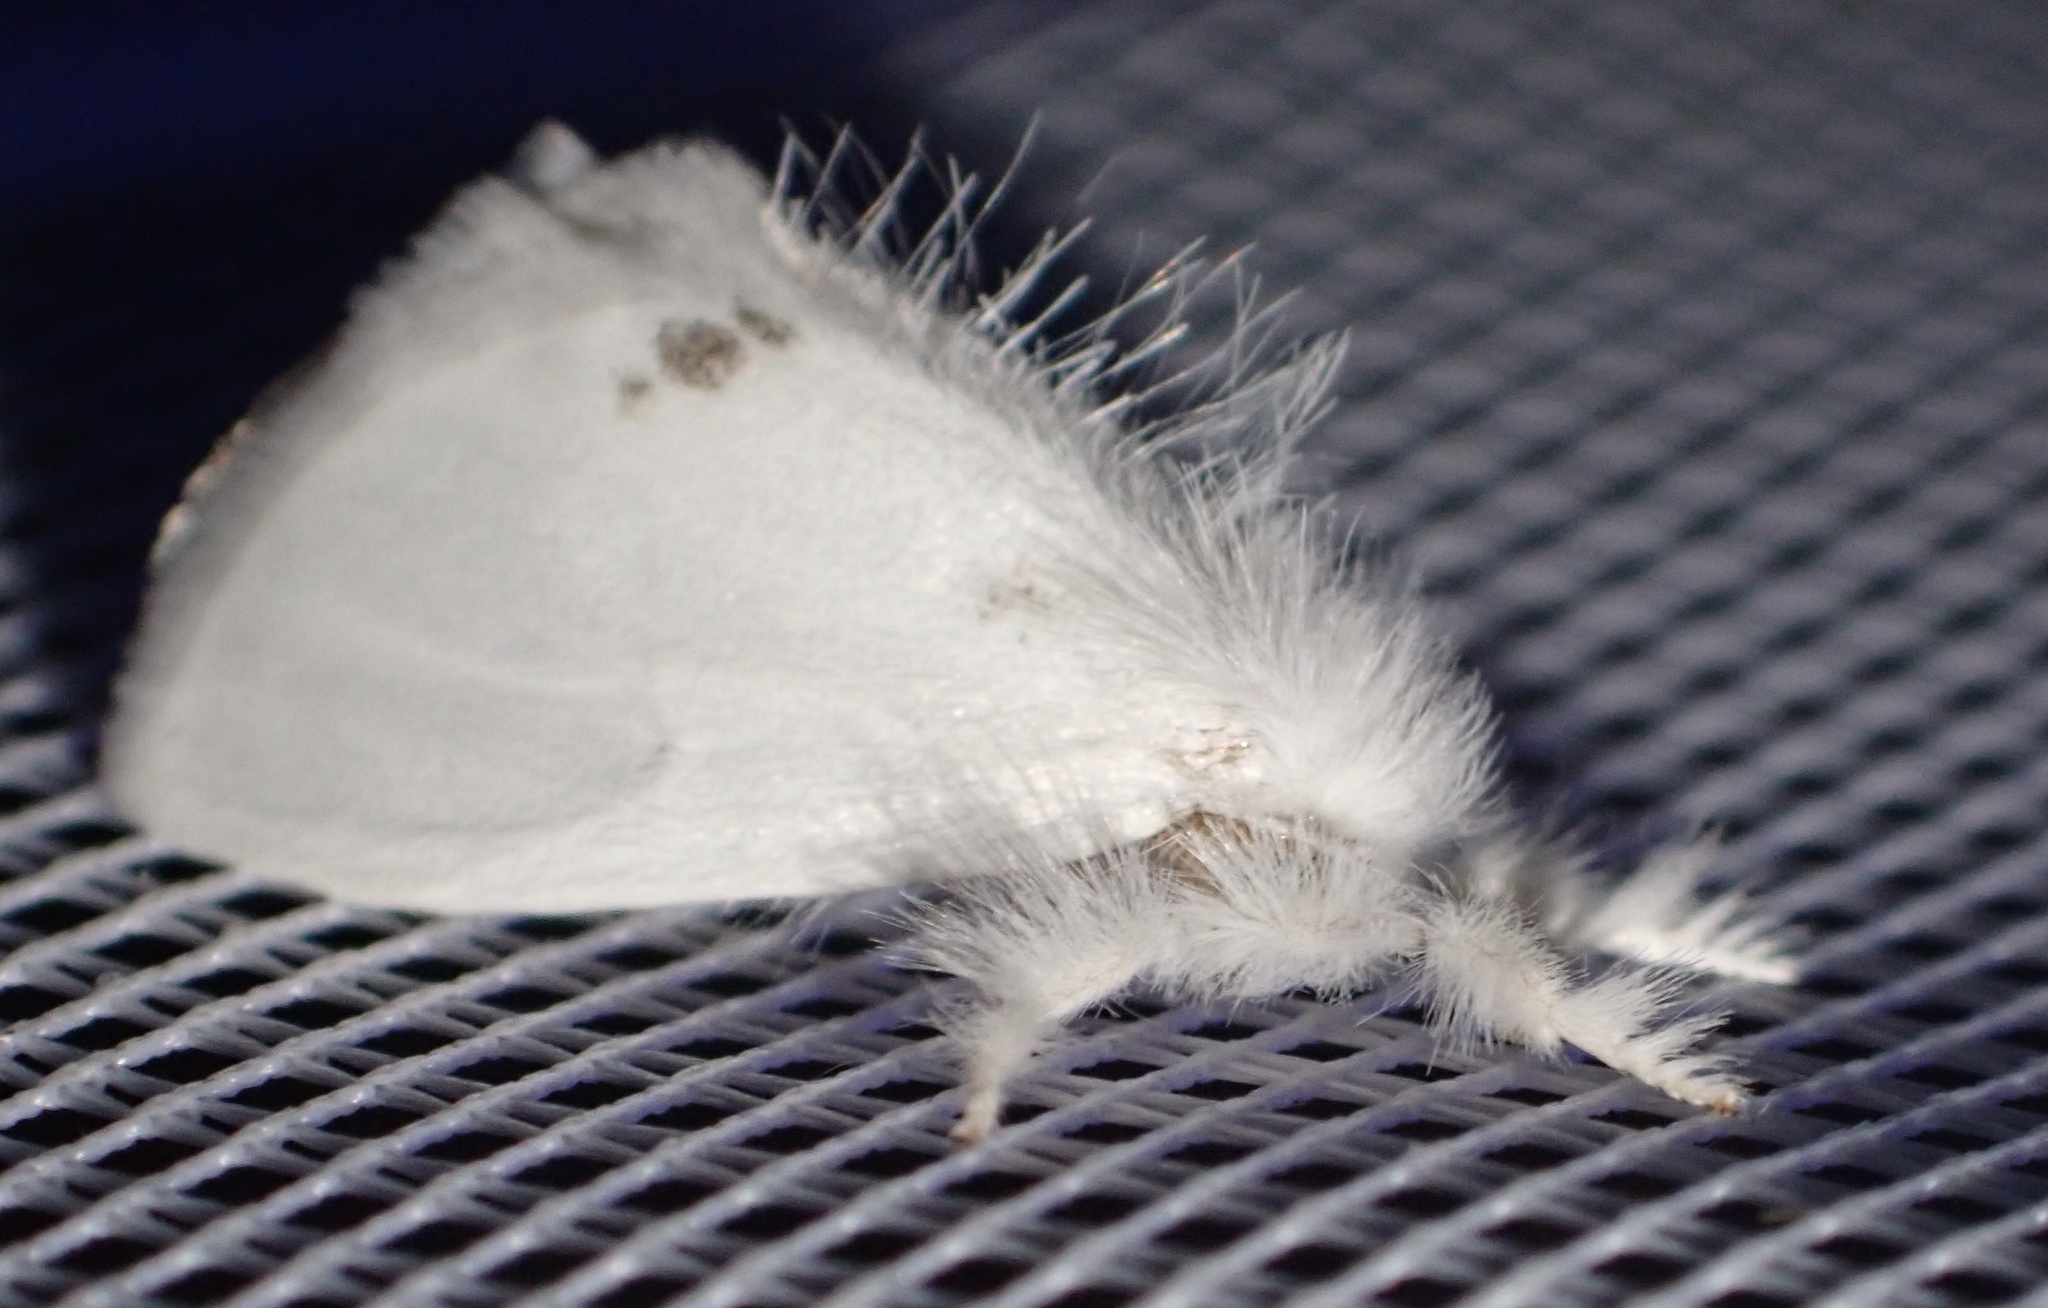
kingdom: Animalia
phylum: Arthropoda
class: Insecta
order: Lepidoptera
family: Erebidae
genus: Sphrageidus
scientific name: Sphrageidus similis
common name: Yellow-tail
